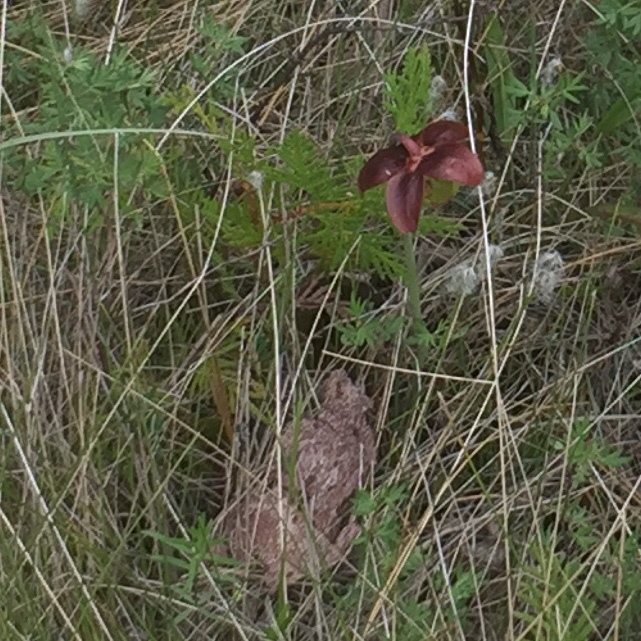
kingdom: Plantae
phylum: Tracheophyta
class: Magnoliopsida
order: Ericales
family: Sarraceniaceae
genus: Sarracenia
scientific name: Sarracenia purpurea
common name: Pitcherplant
